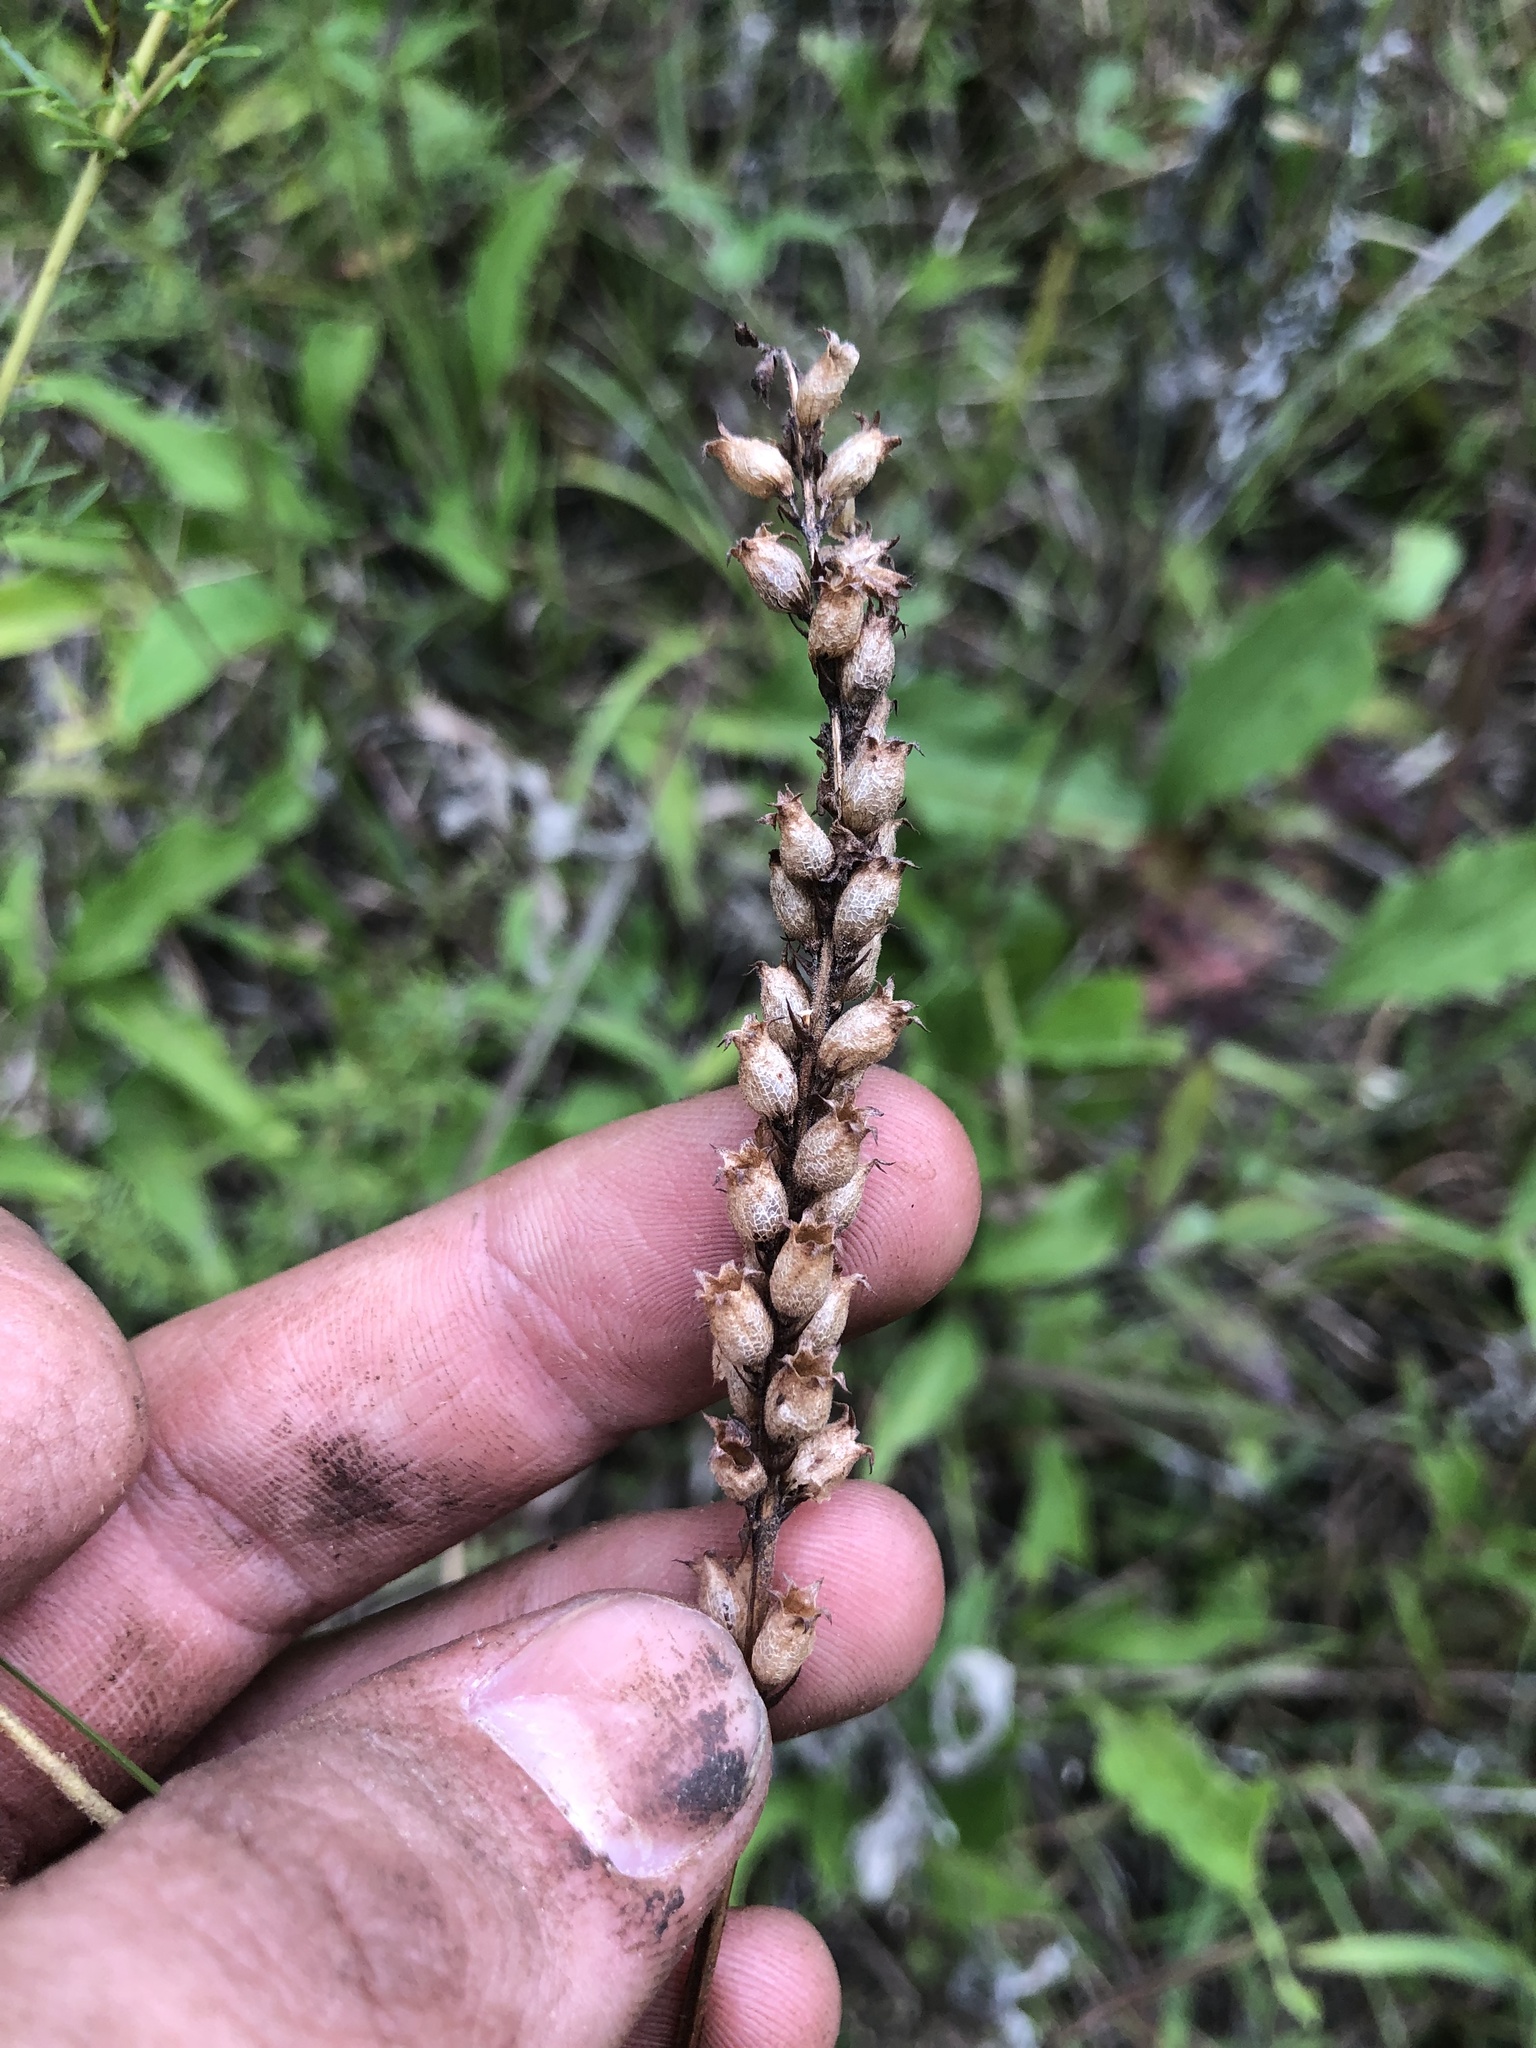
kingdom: Plantae
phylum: Tracheophyta
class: Magnoliopsida
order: Lamiales
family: Lamiaceae
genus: Physostegia
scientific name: Physostegia angustifolia
